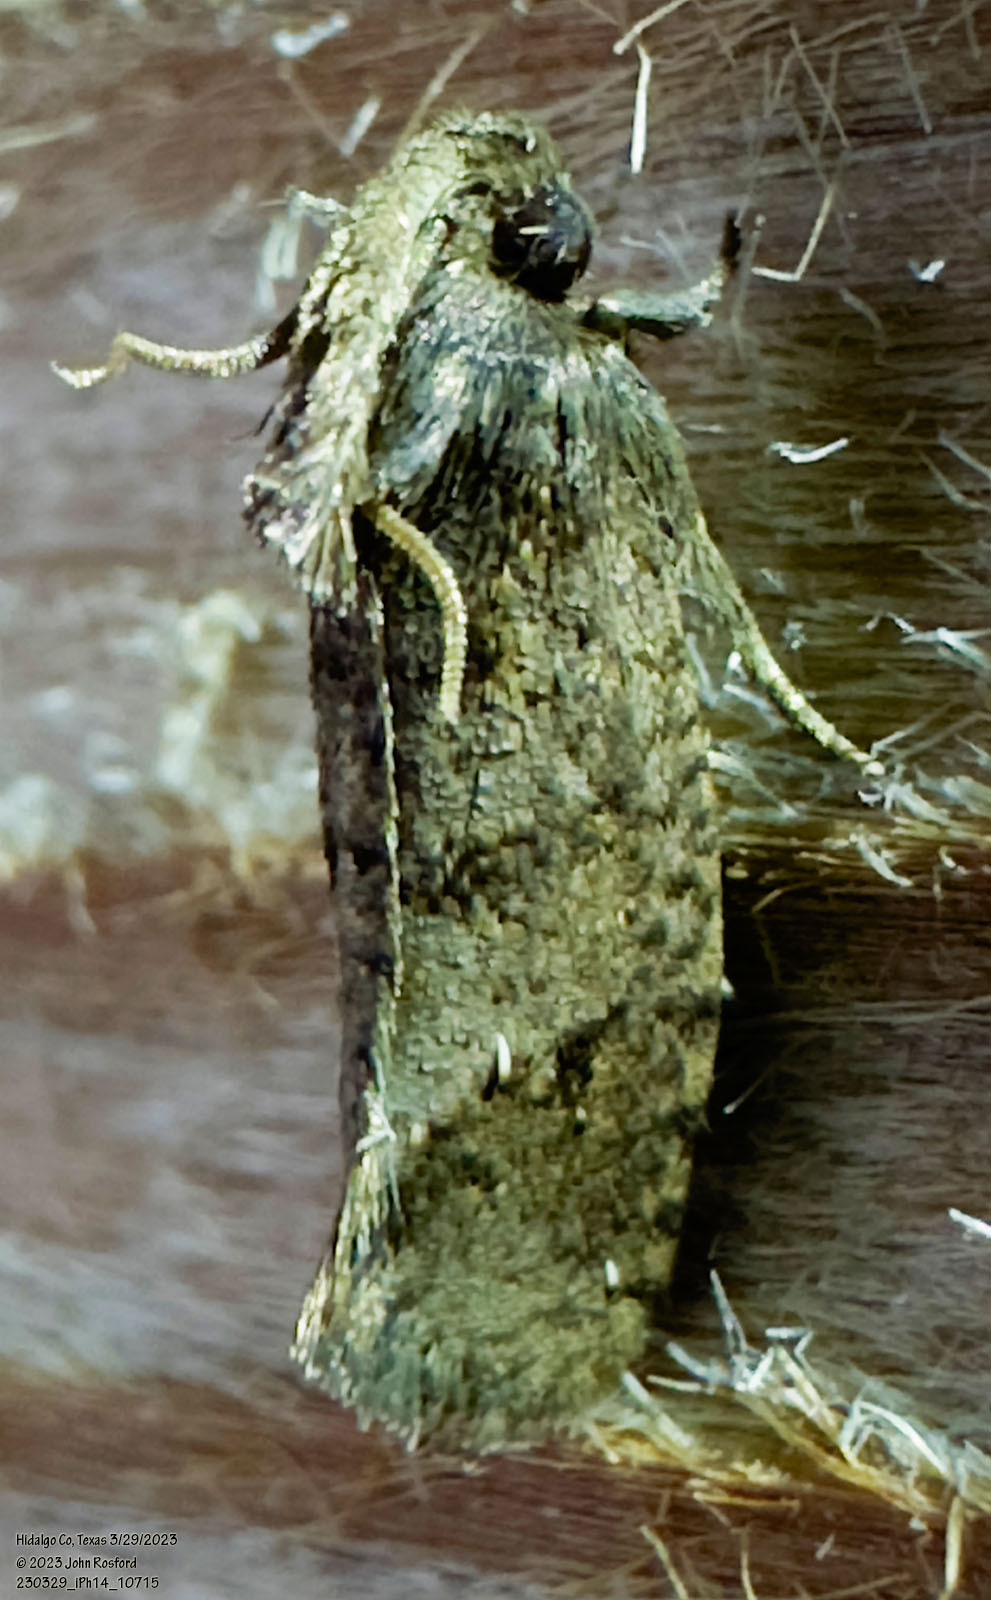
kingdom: Animalia
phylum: Arthropoda
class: Insecta
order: Lepidoptera
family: Tineidae
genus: Acrolophus
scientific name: Acrolophus texanella
